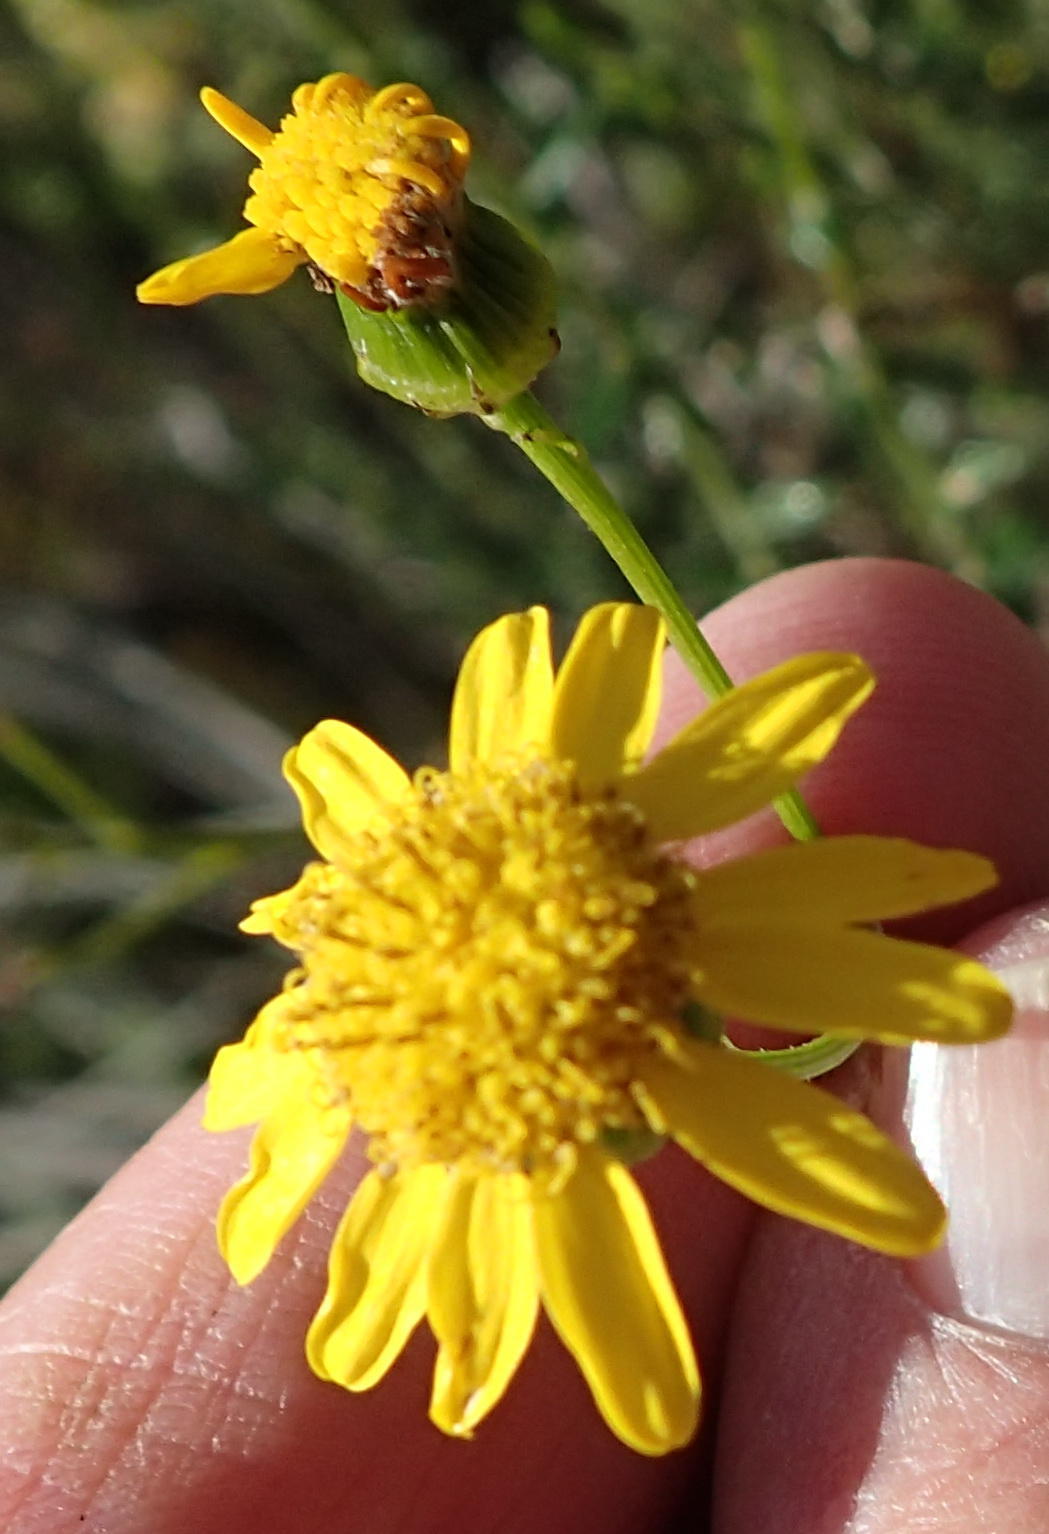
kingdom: Plantae
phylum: Tracheophyta
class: Magnoliopsida
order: Asterales
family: Asteraceae
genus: Senecio
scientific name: Senecio ilicifolius
